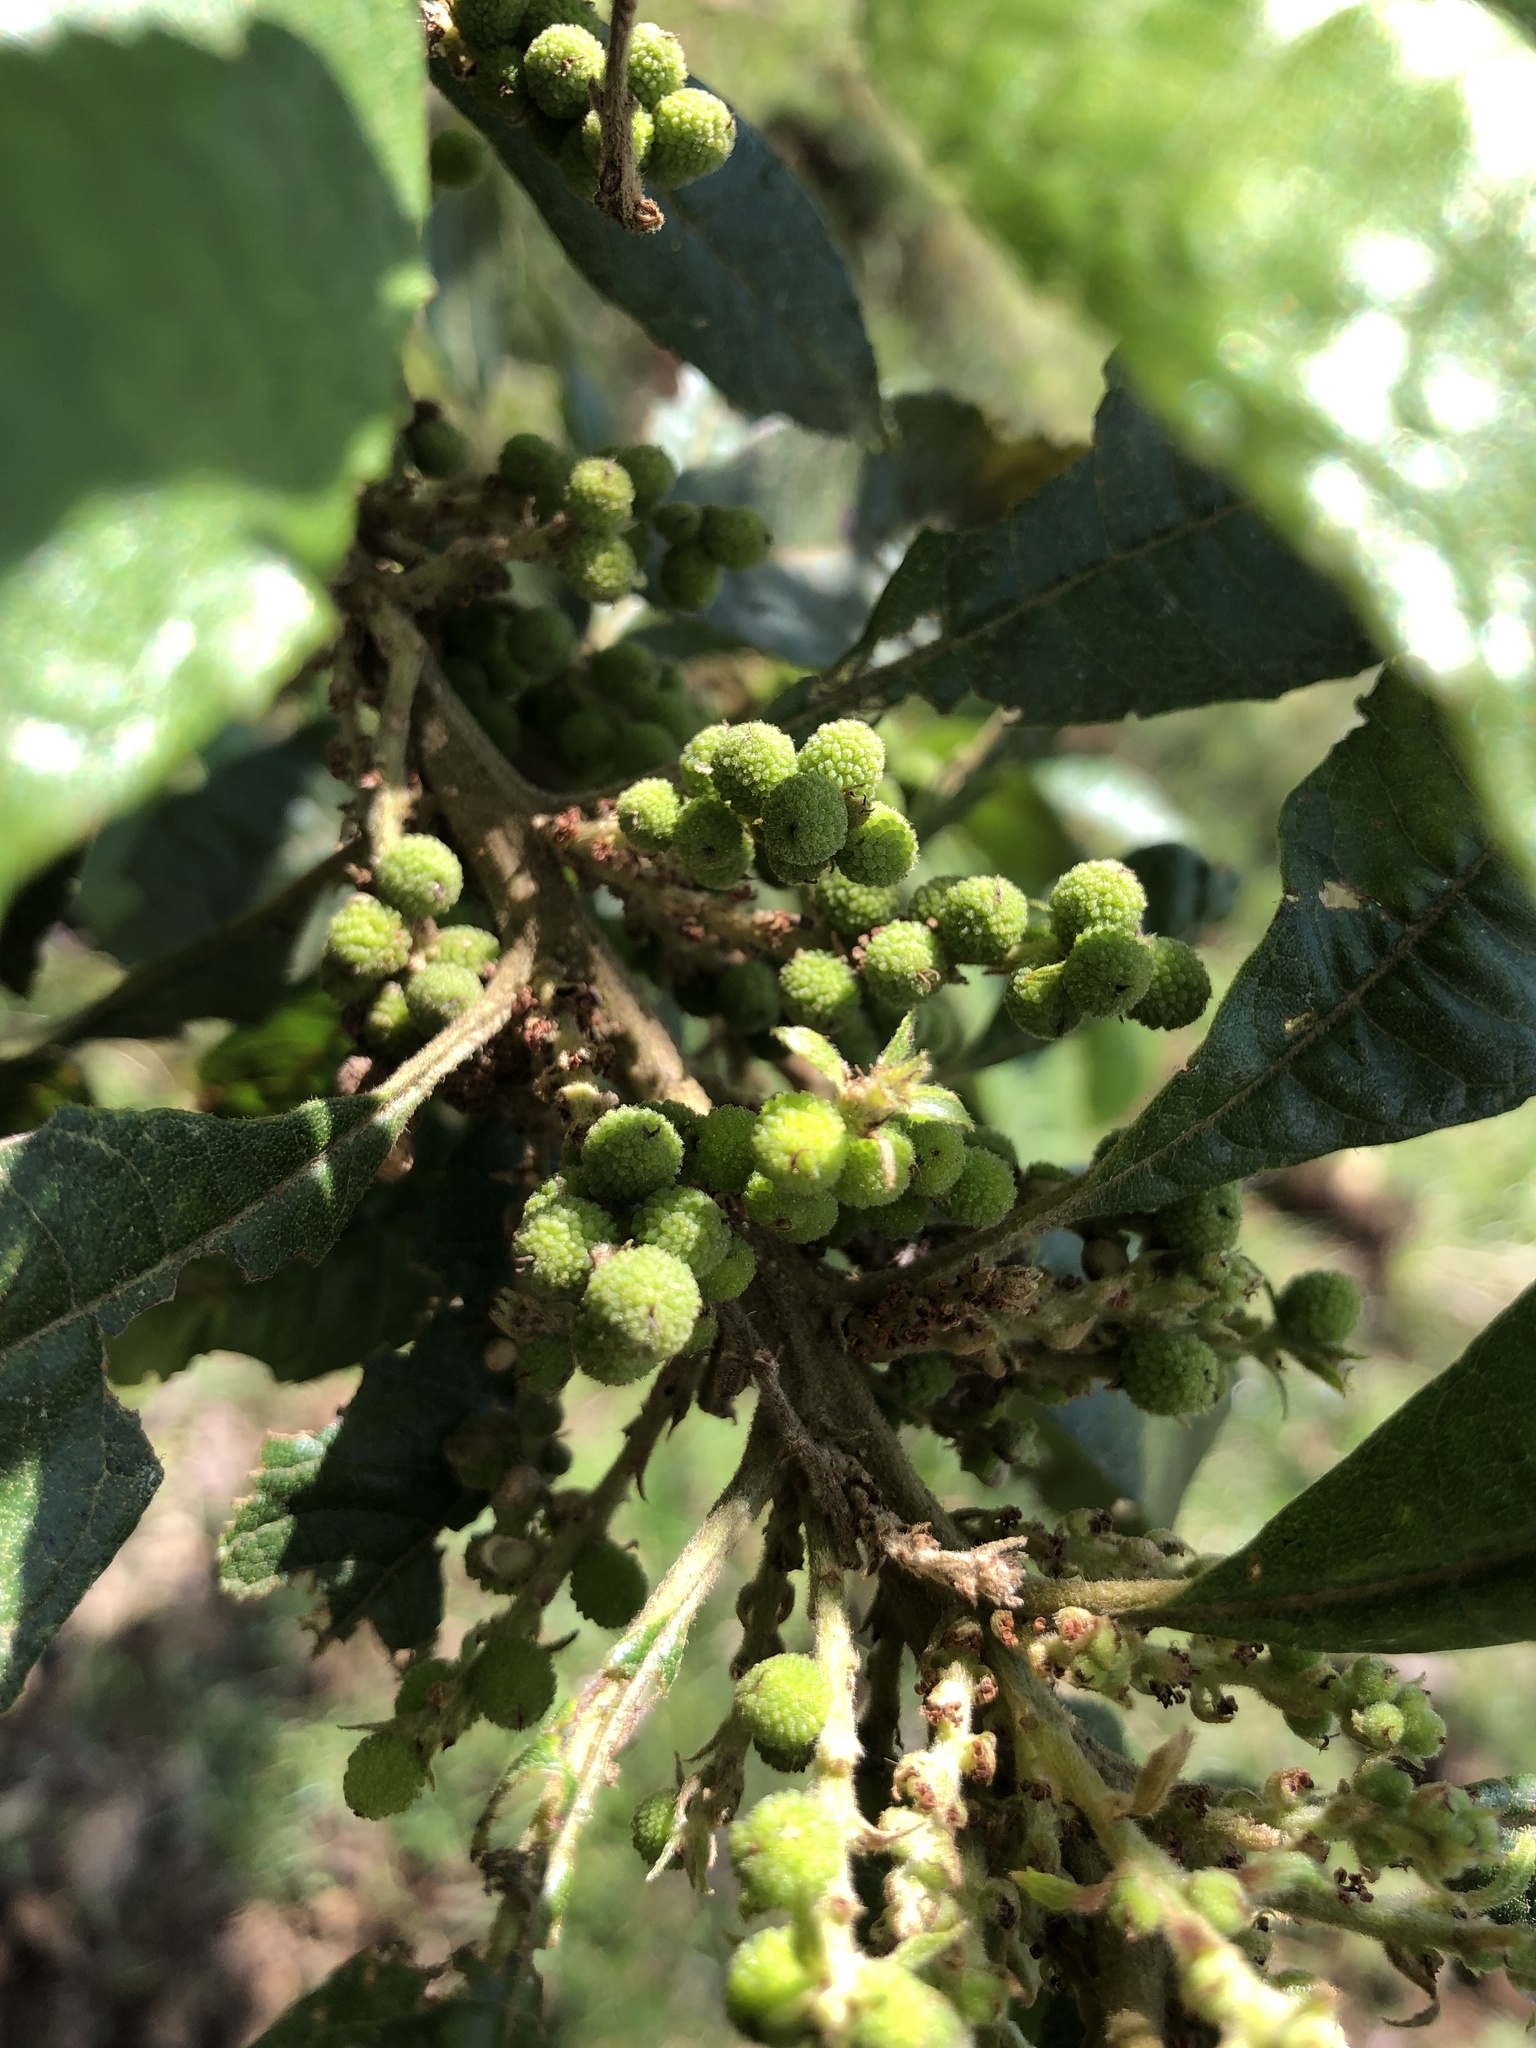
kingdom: Plantae
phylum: Tracheophyta
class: Magnoliopsida
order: Fagales
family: Myricaceae
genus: Morella
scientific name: Morella pubescens
